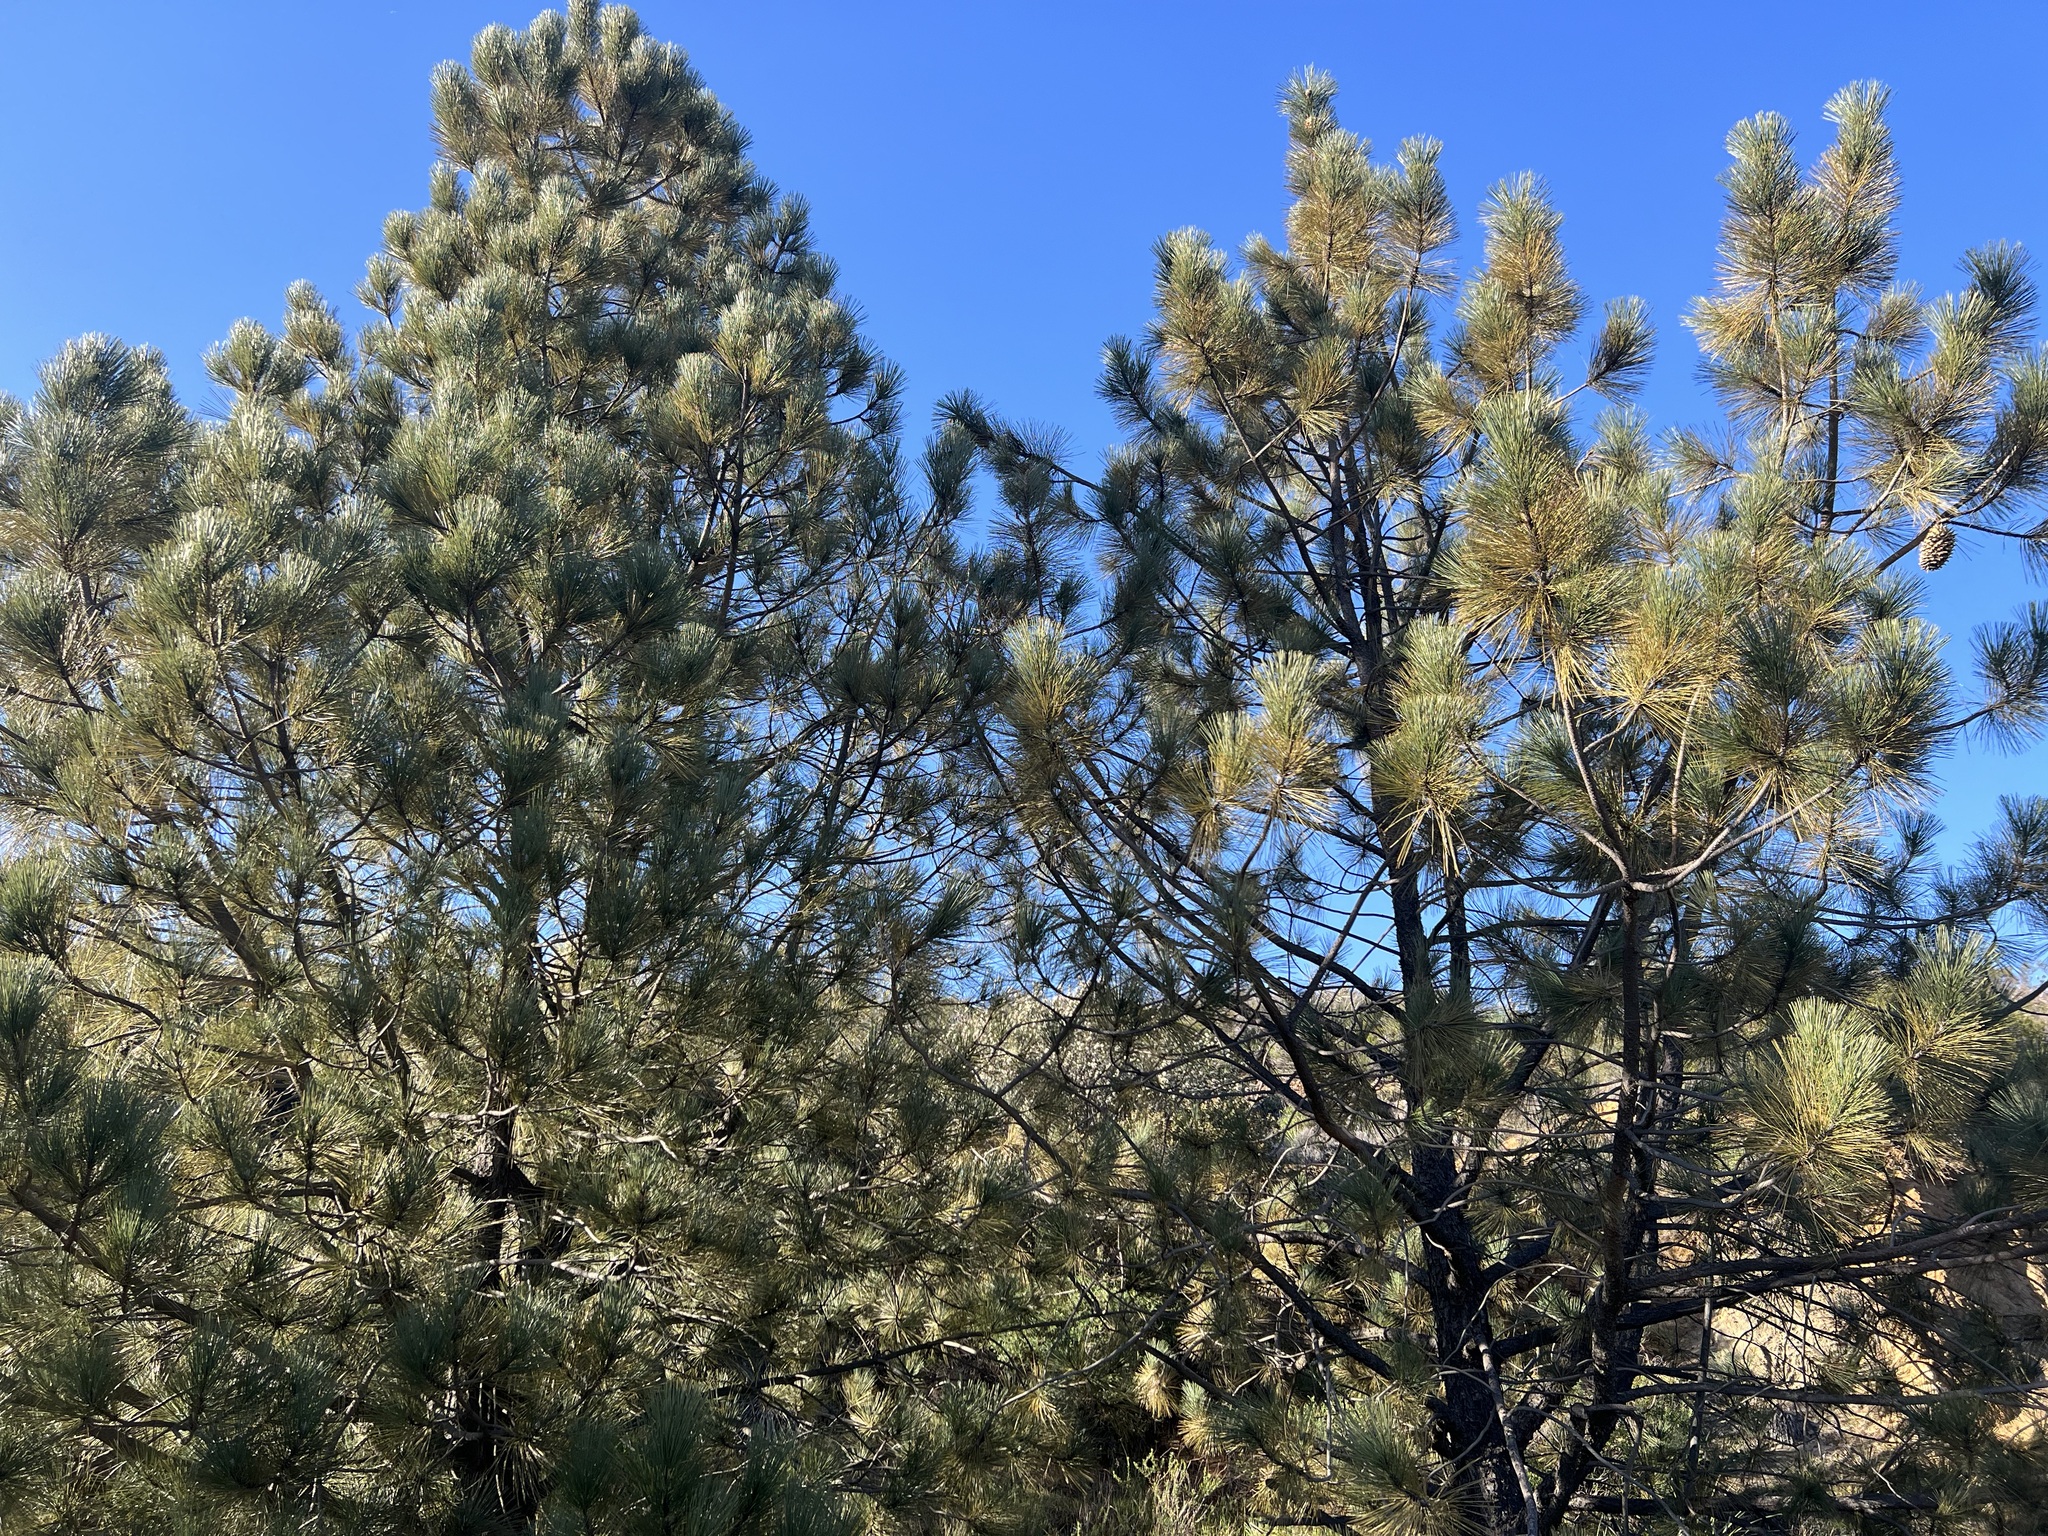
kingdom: Plantae
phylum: Tracheophyta
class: Pinopsida
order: Pinales
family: Pinaceae
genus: Pinus
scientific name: Pinus coulteri
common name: Coulter pine
